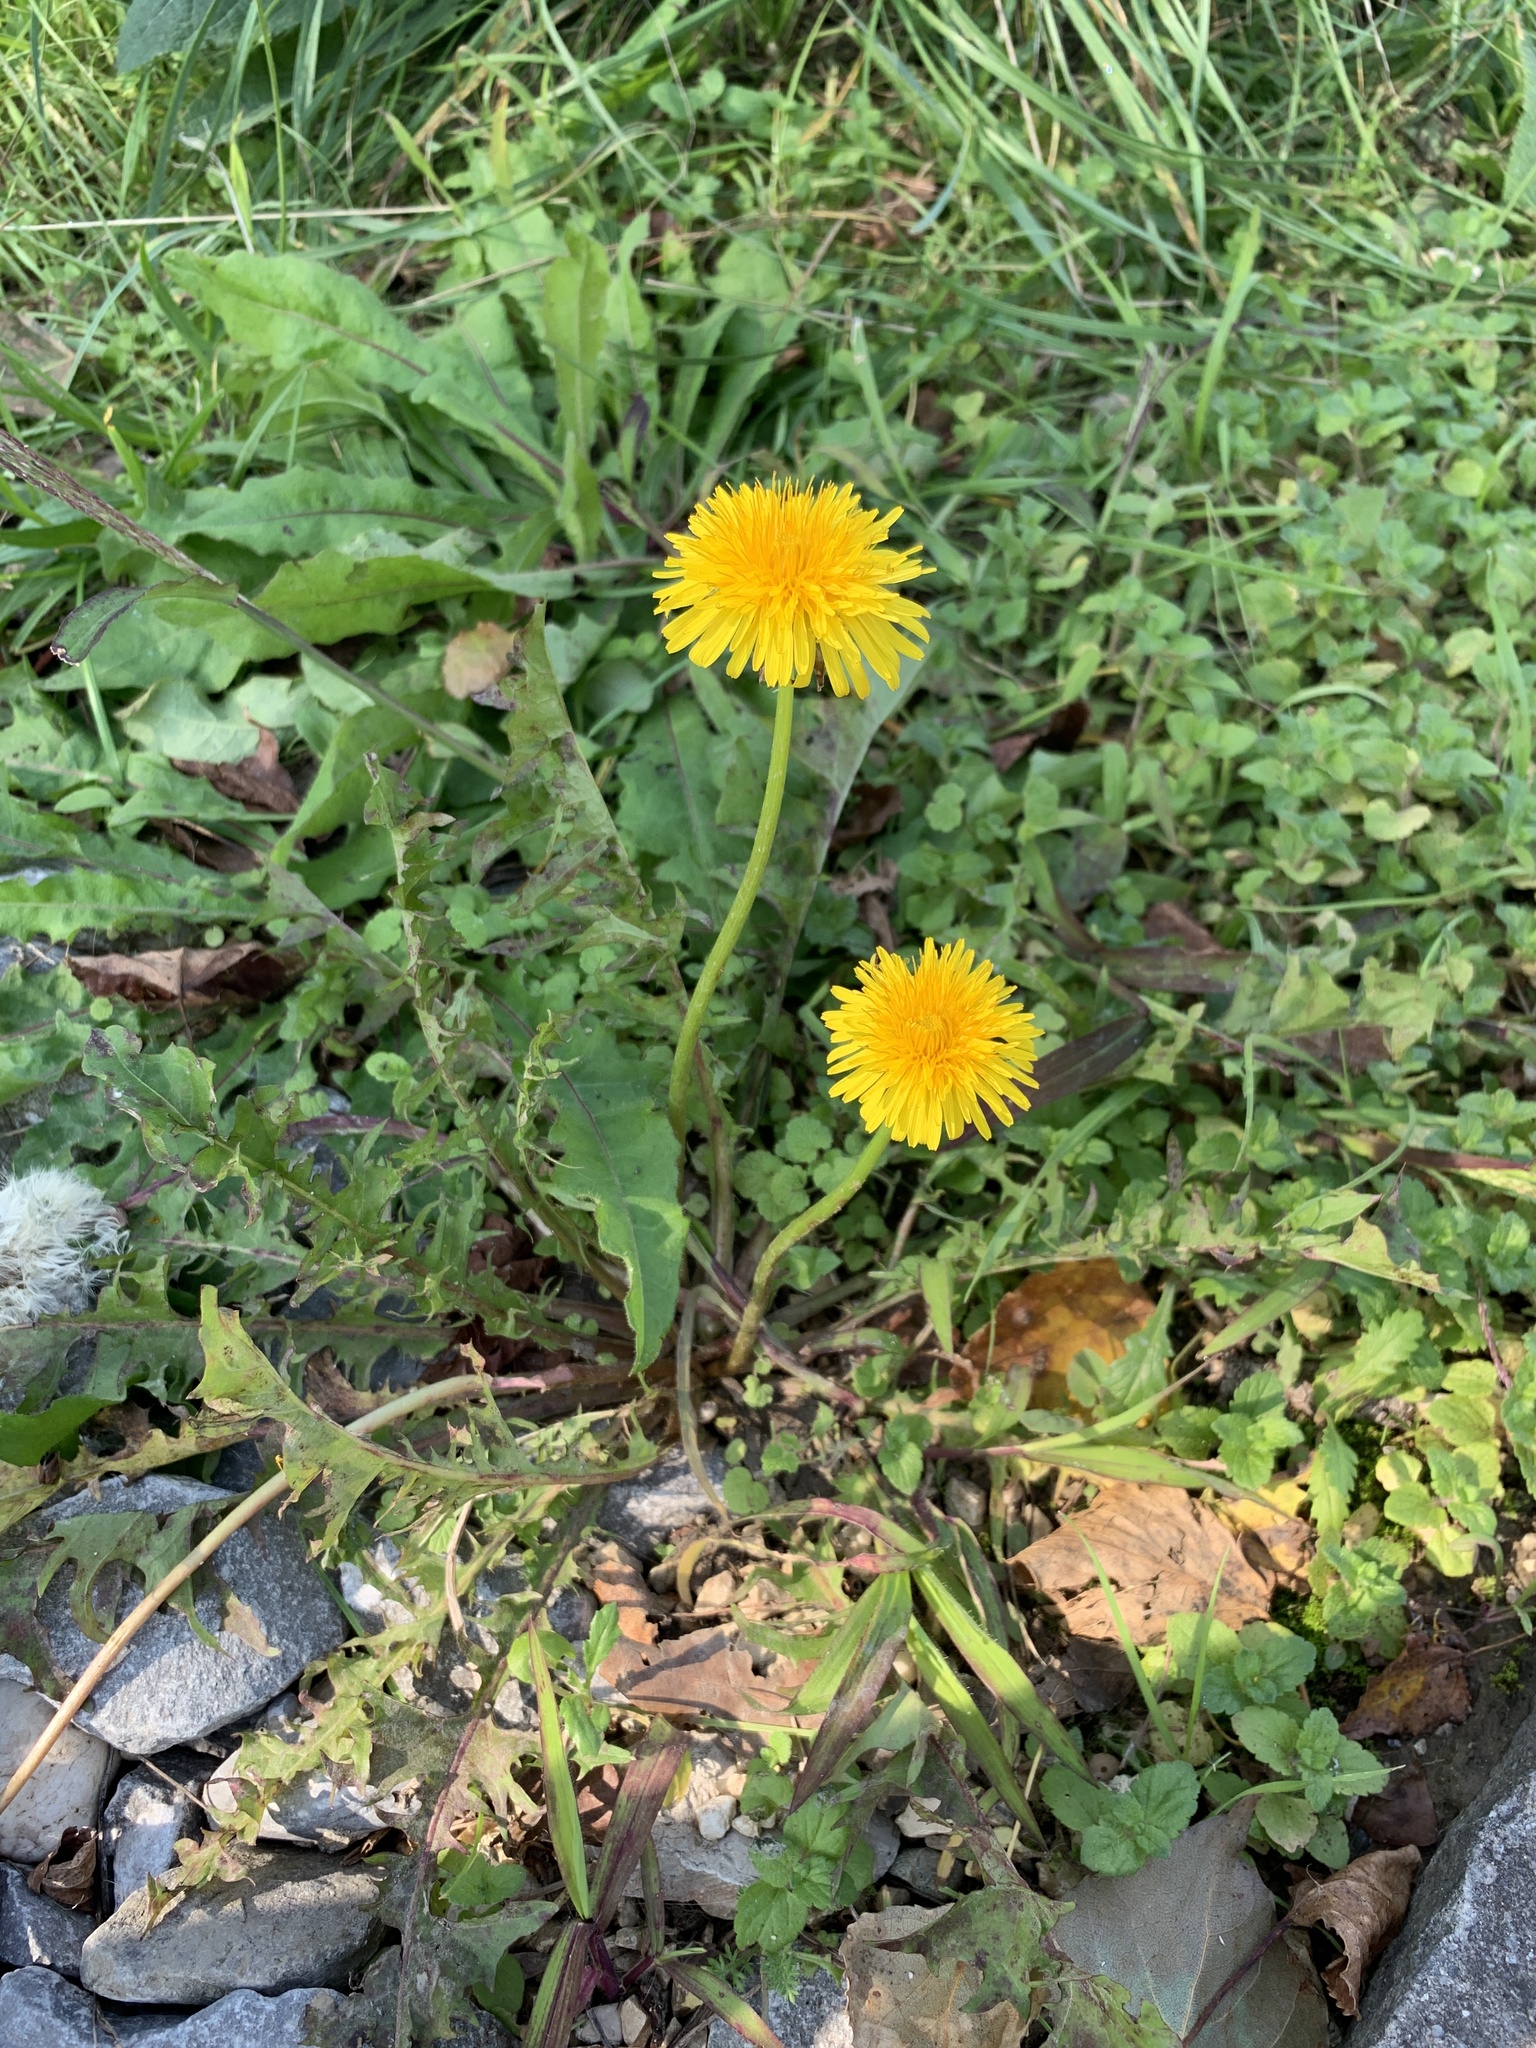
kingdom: Plantae
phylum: Tracheophyta
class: Magnoliopsida
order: Asterales
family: Asteraceae
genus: Taraxacum
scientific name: Taraxacum officinale
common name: Common dandelion
